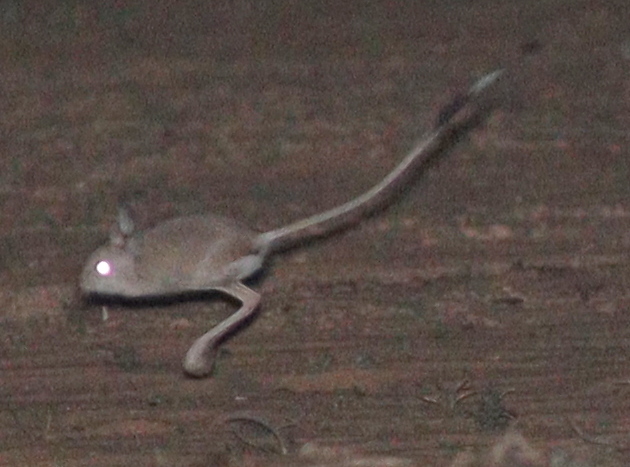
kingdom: Animalia
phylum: Chordata
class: Mammalia
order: Rodentia
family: Dipodidae
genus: Jaculus
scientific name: Jaculus jaculus
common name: Lesser egyptian jerboa
